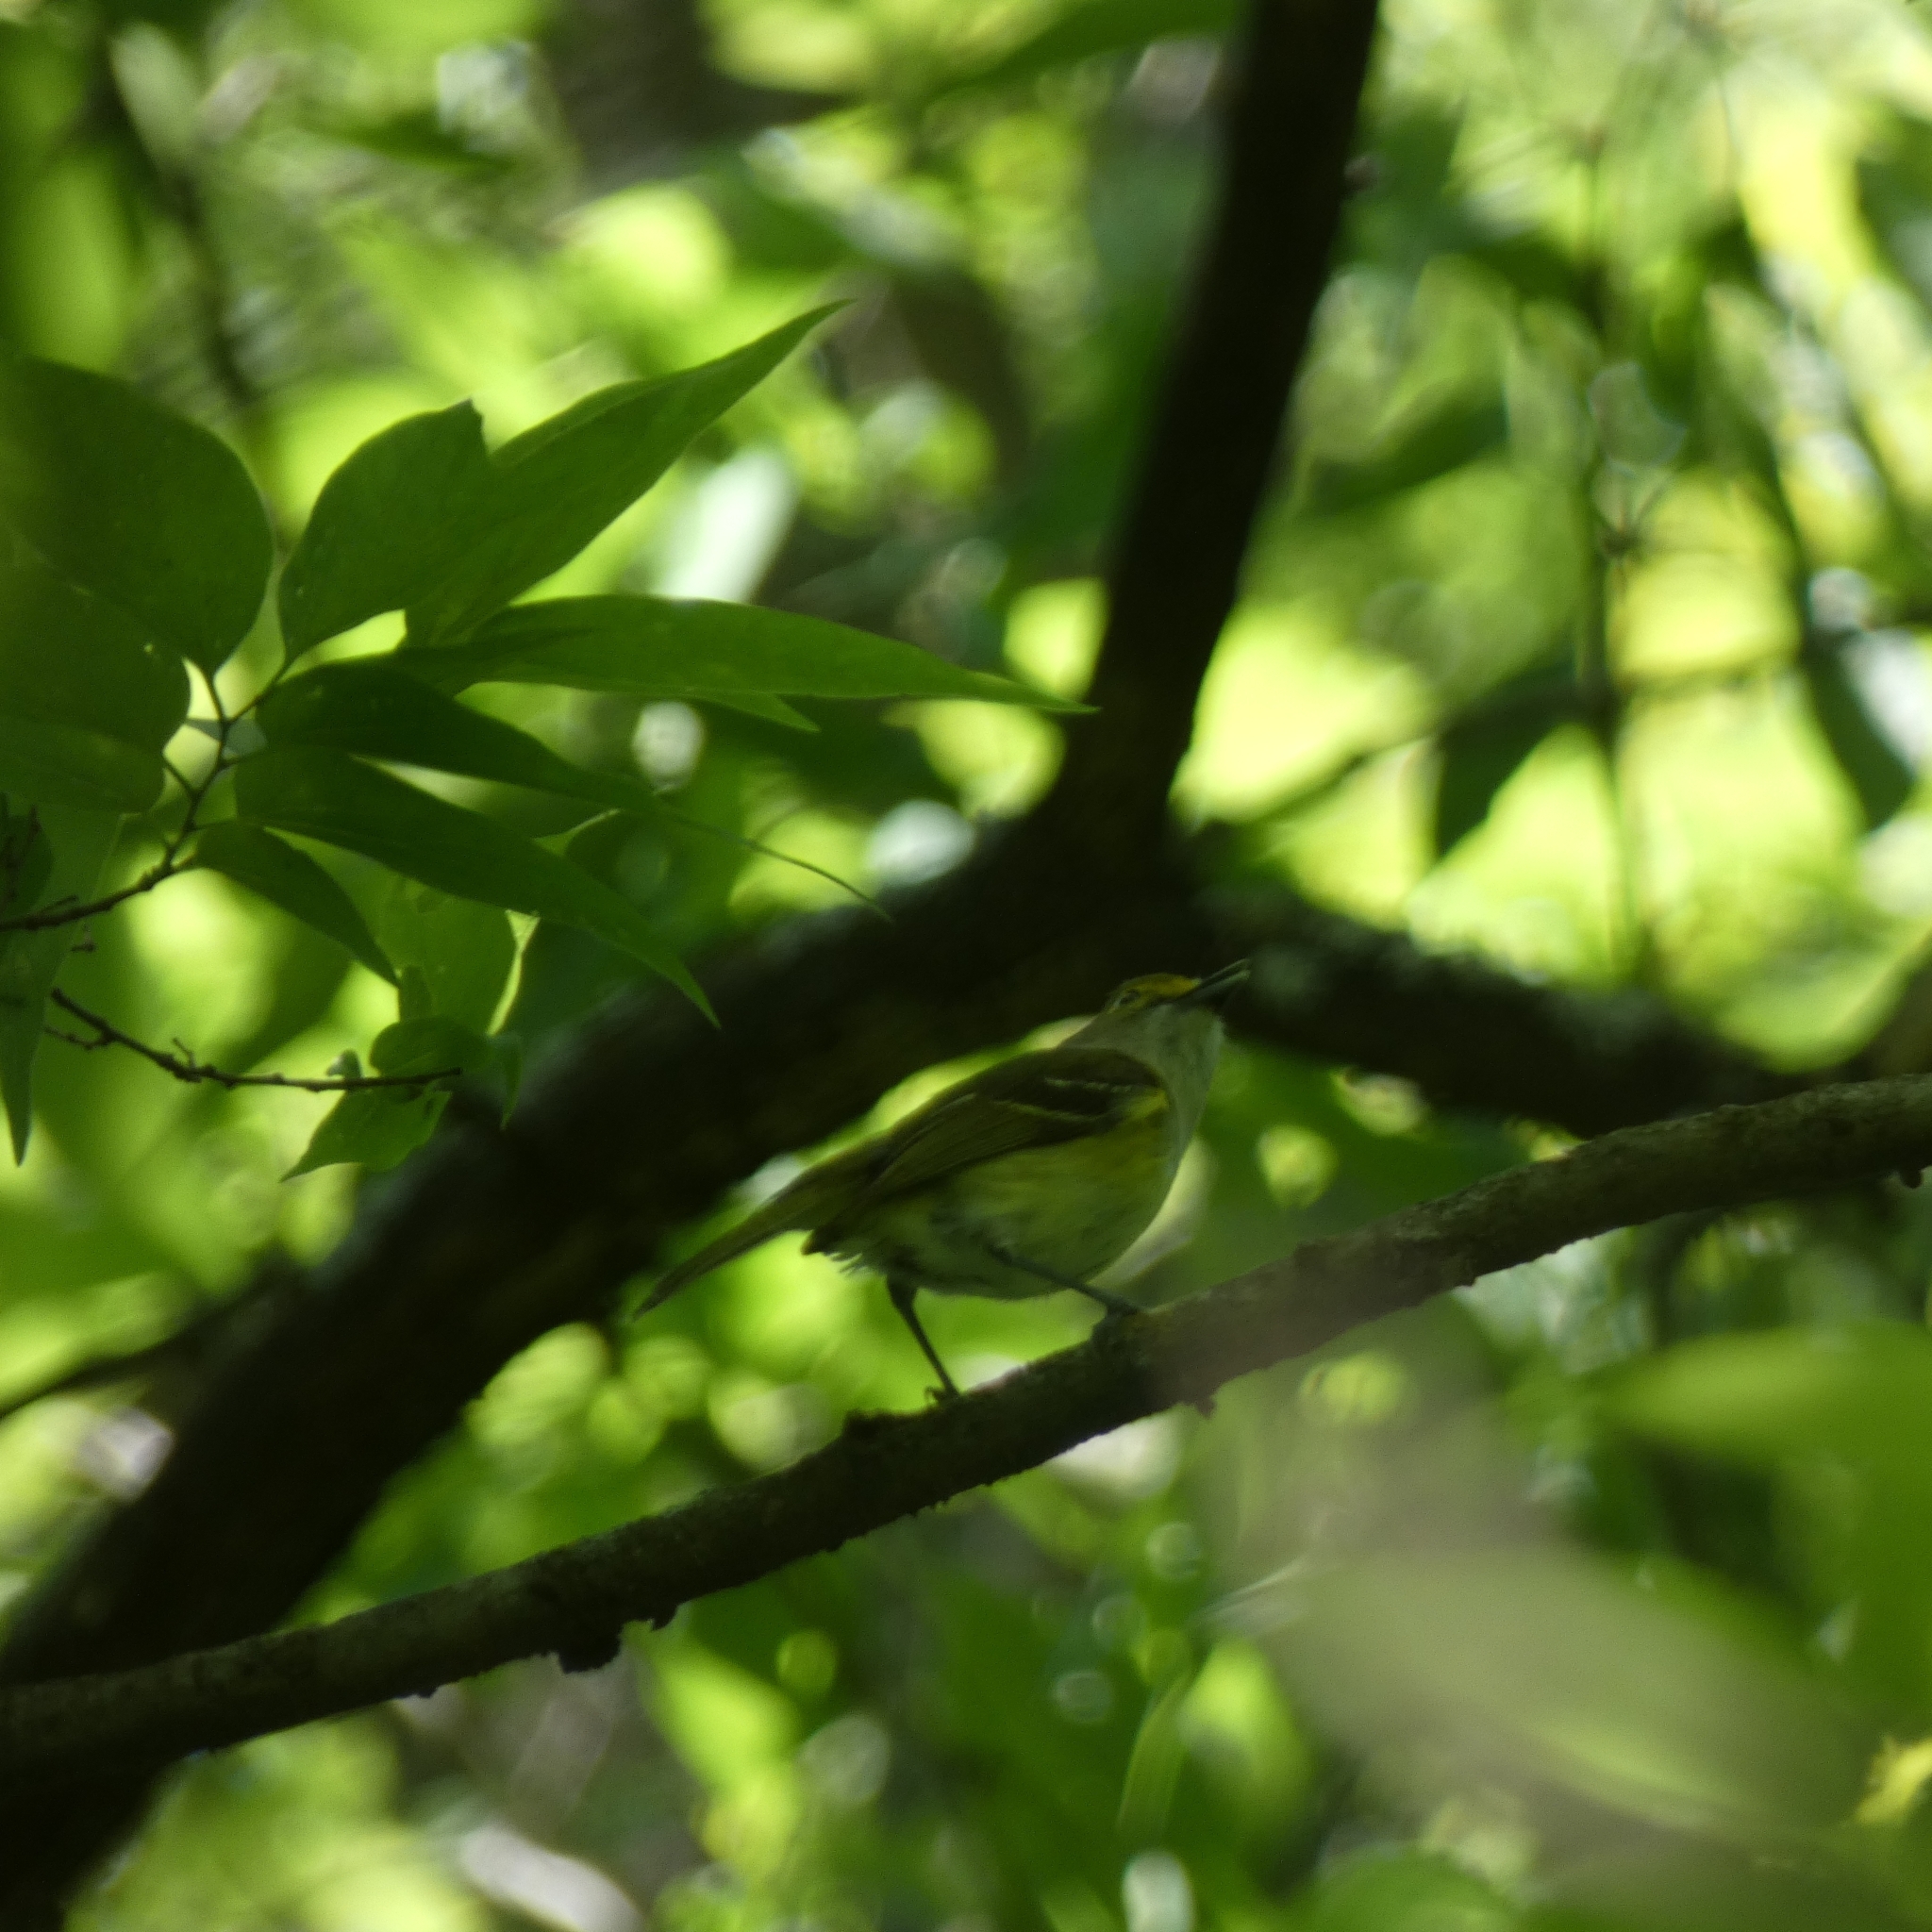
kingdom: Animalia
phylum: Chordata
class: Aves
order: Passeriformes
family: Vireonidae
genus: Vireo
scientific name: Vireo griseus
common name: White-eyed vireo
